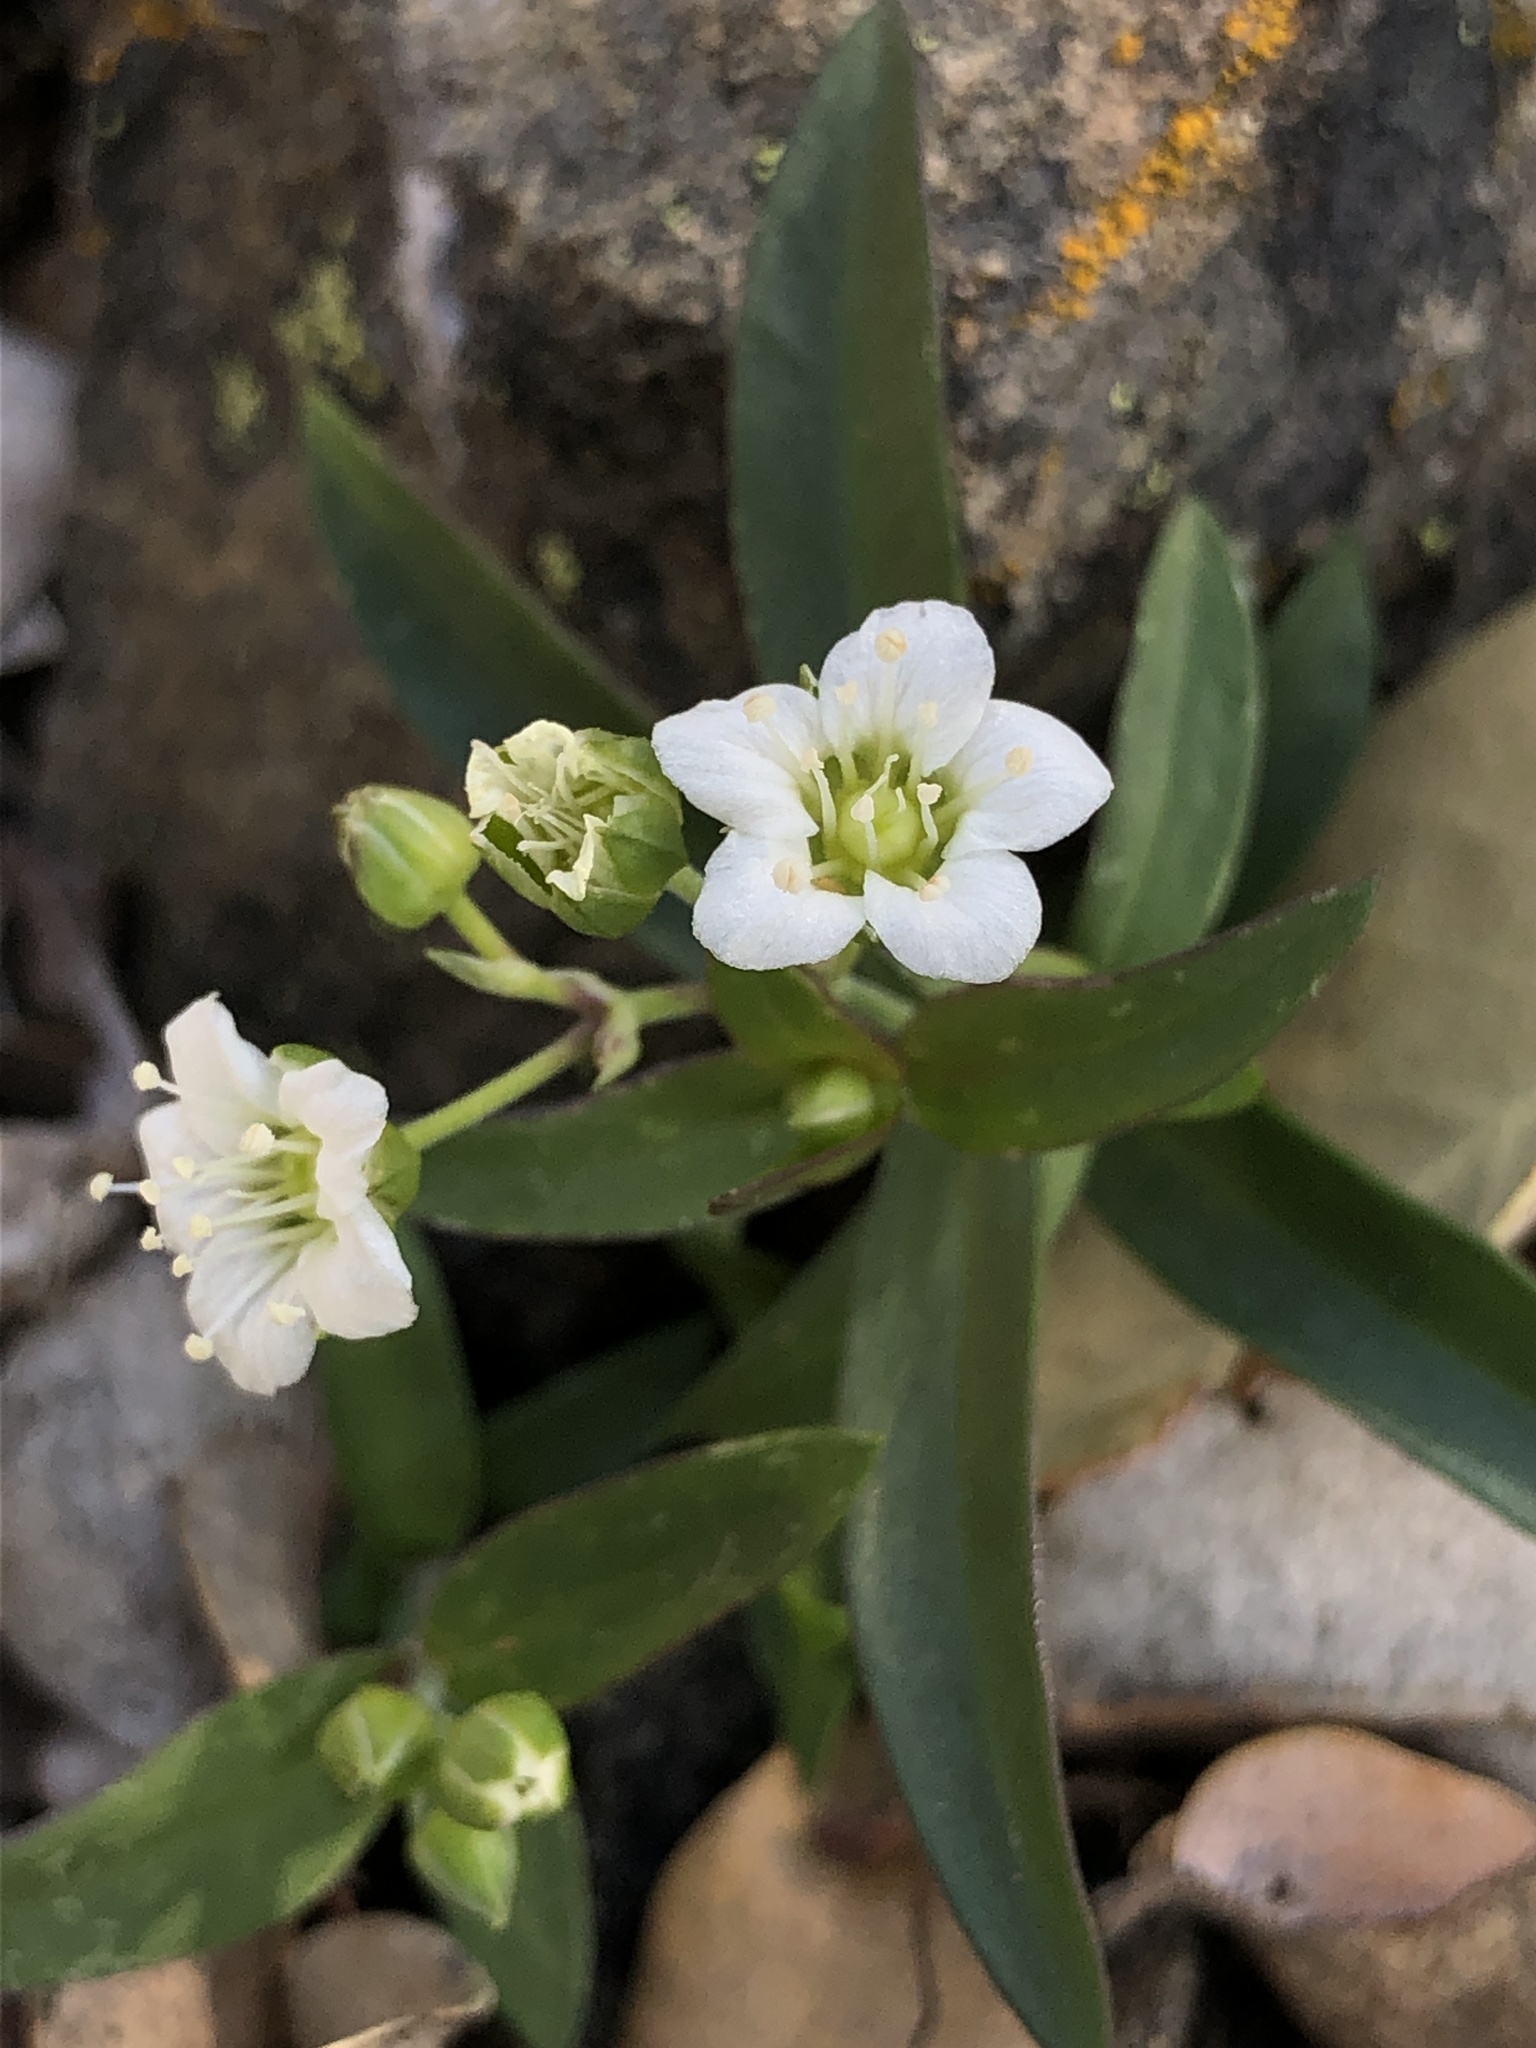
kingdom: Plantae
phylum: Tracheophyta
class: Magnoliopsida
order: Caryophyllales
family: Caryophyllaceae
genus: Moehringia
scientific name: Moehringia macrophylla
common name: Big-leaf sandwort
